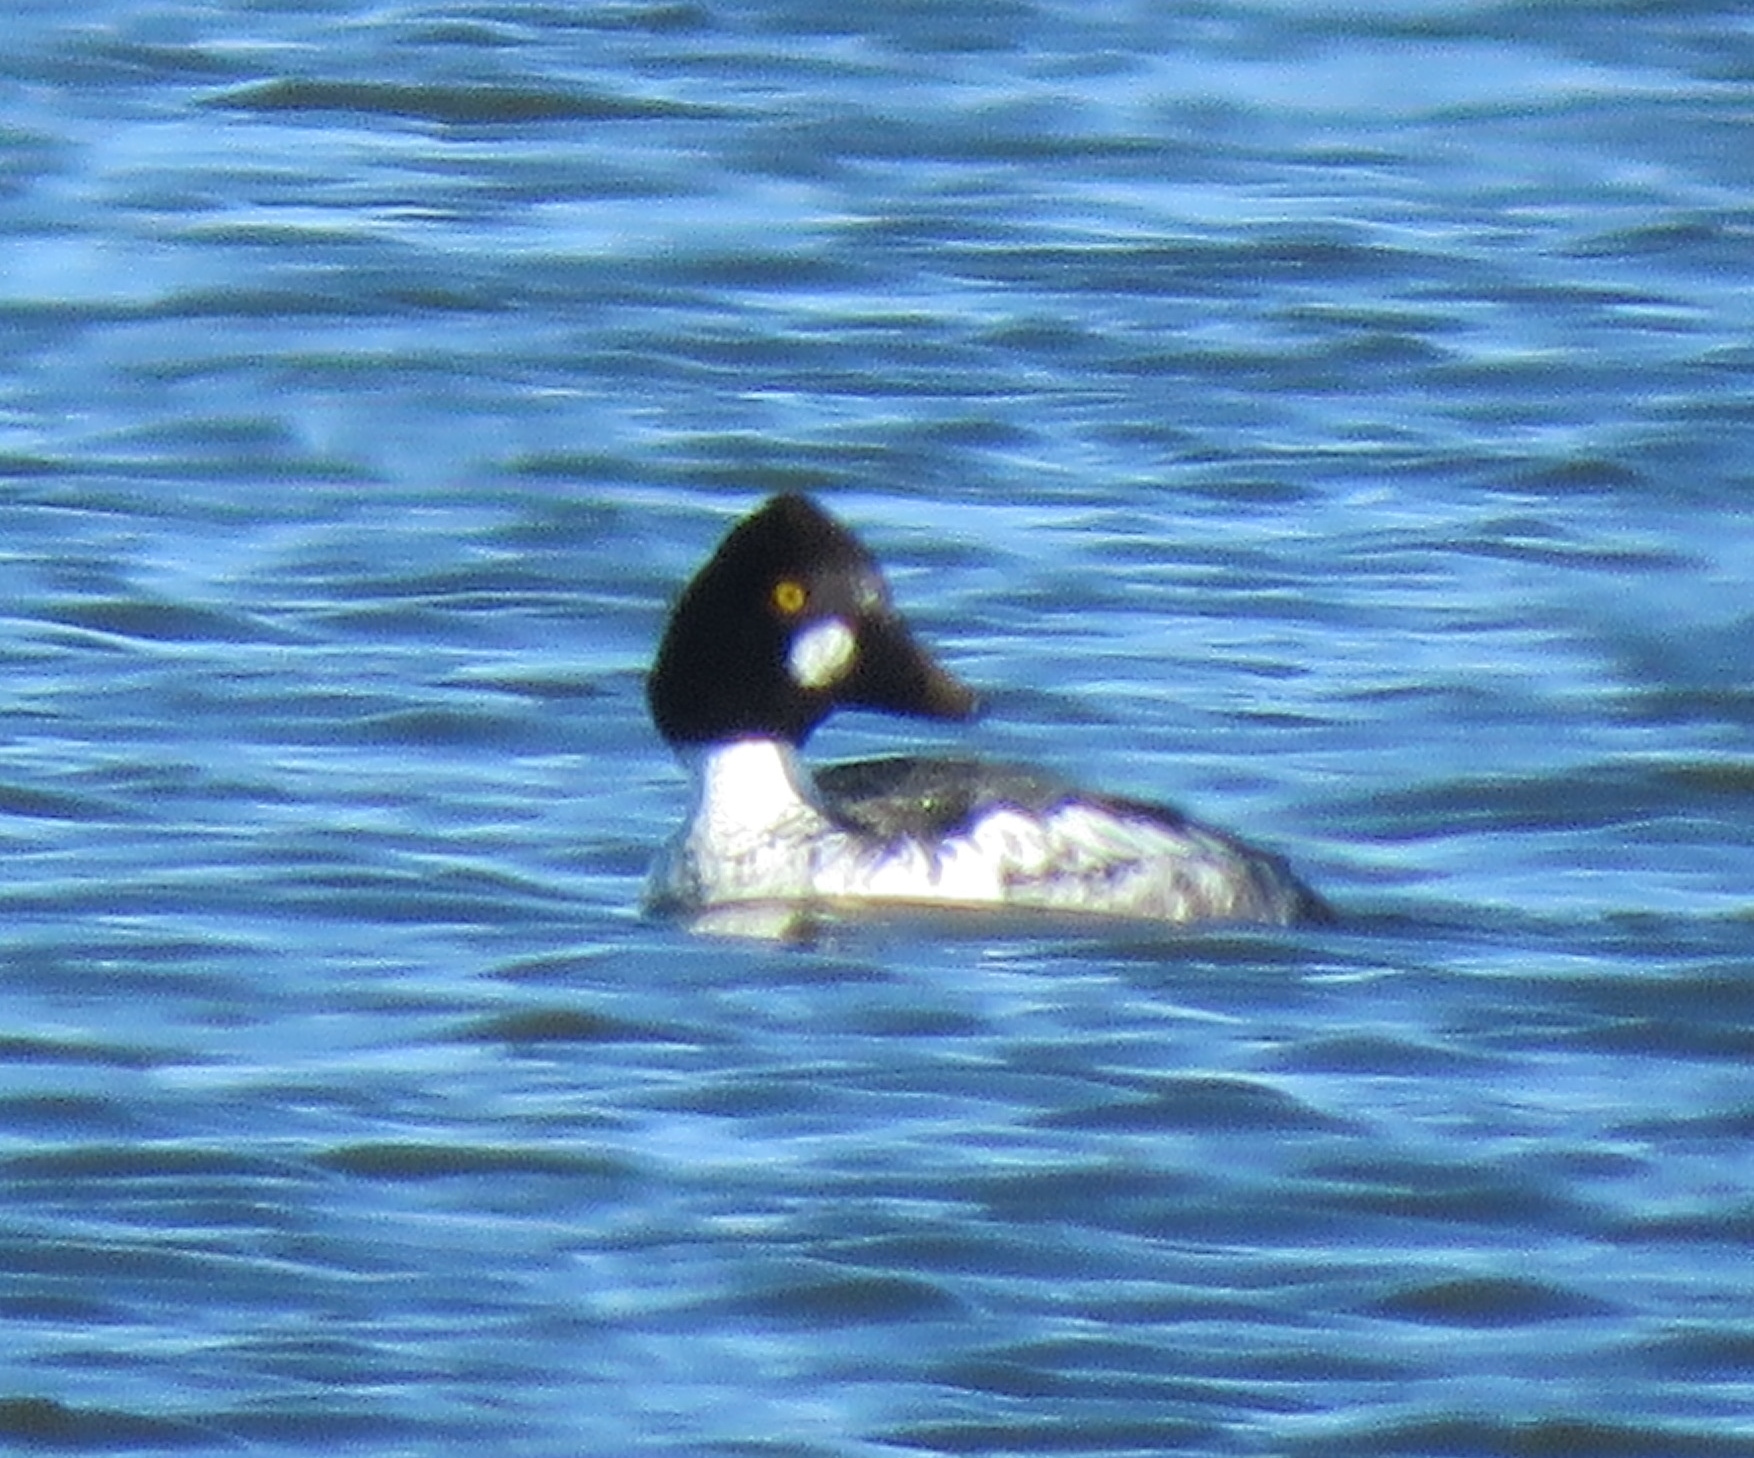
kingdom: Animalia
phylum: Chordata
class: Aves
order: Anseriformes
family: Anatidae
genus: Bucephala
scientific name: Bucephala clangula
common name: Common goldeneye
